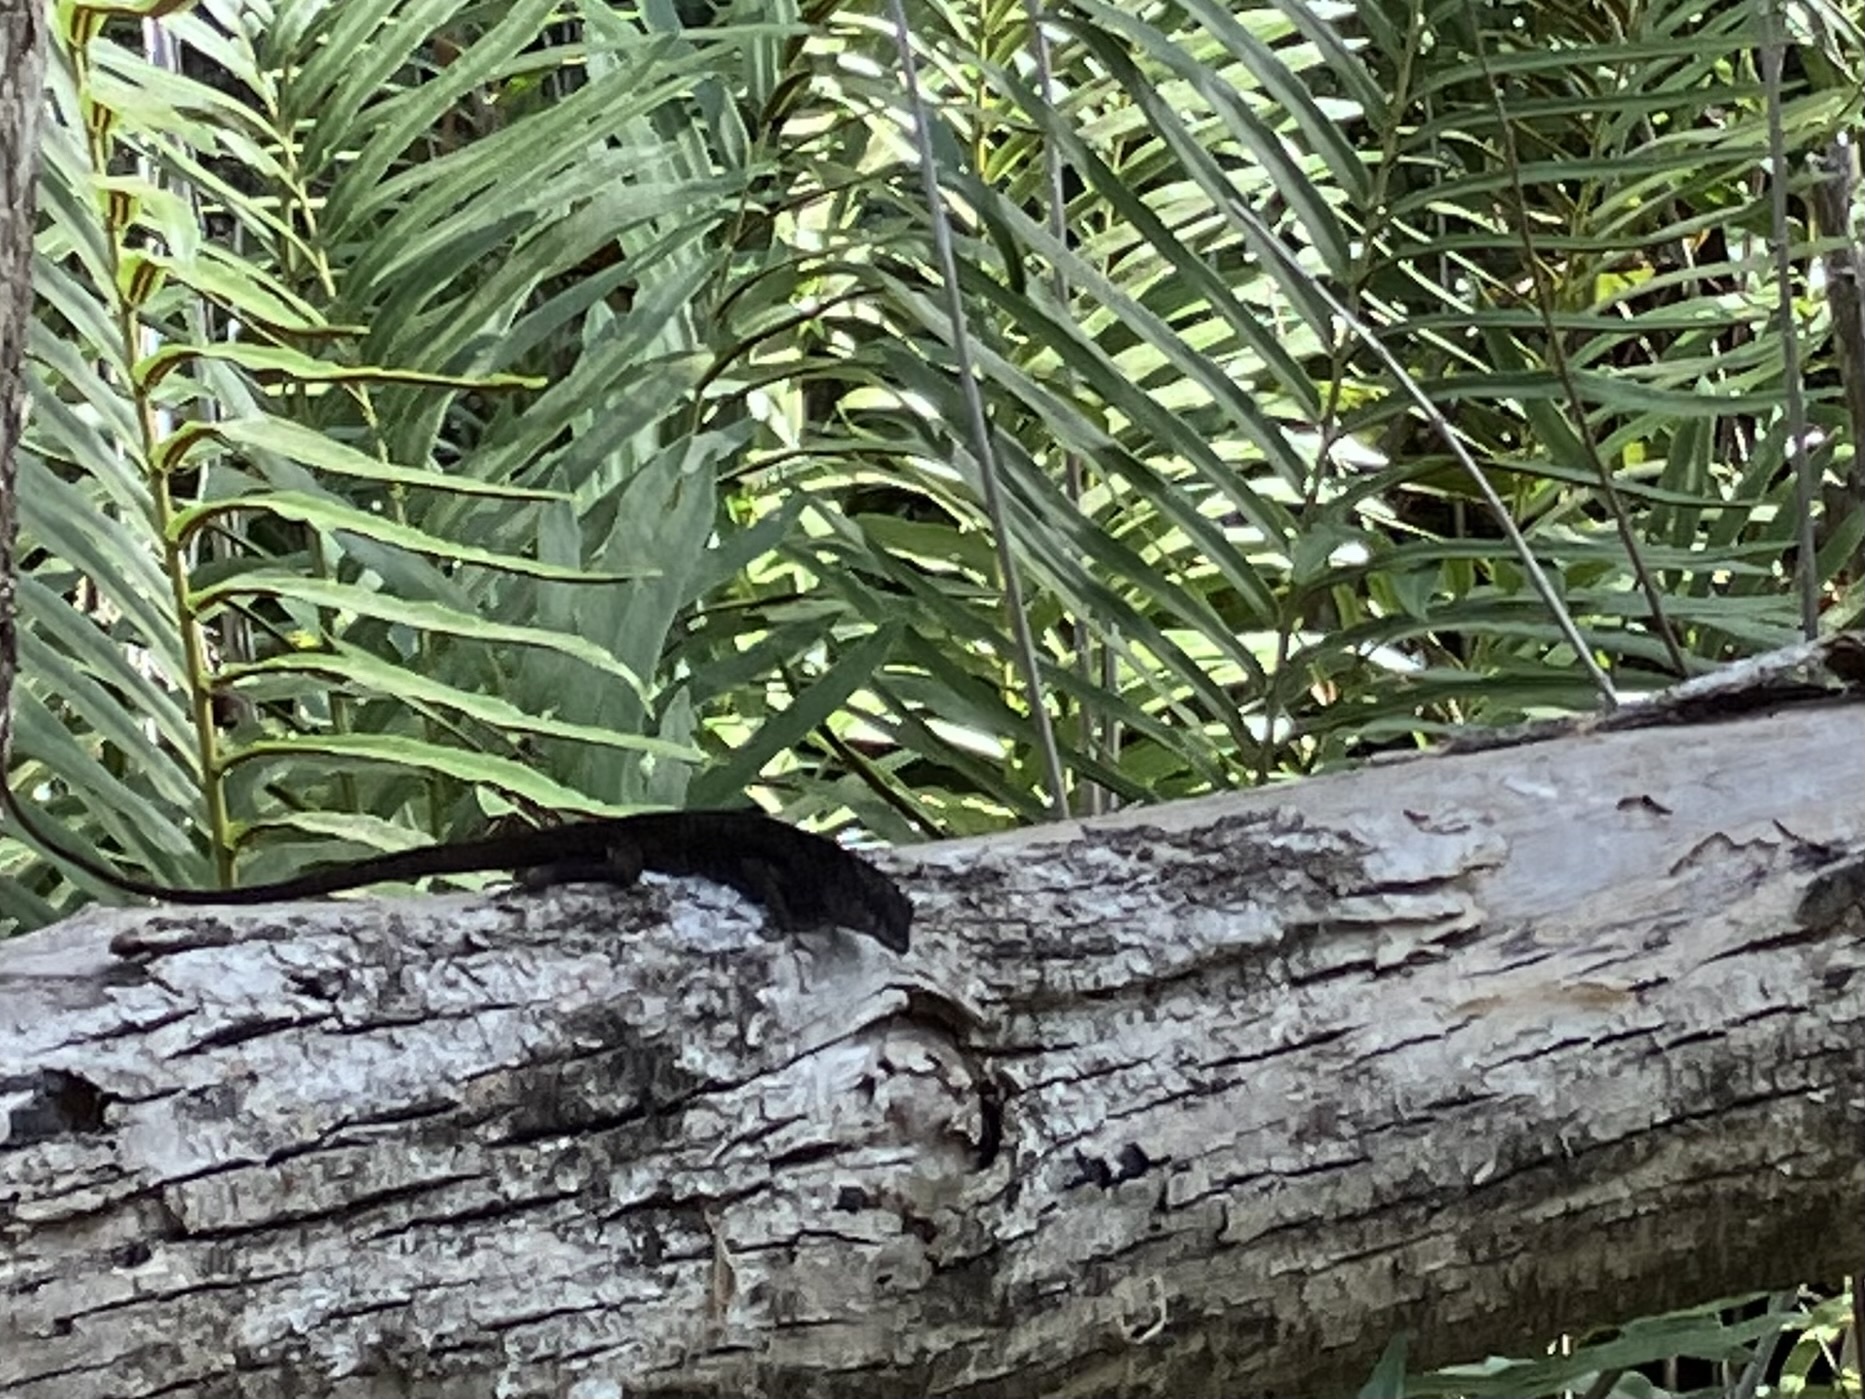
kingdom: Animalia
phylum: Chordata
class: Squamata
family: Dactyloidae
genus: Anolis
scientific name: Anolis sagrei
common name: Brown anole
